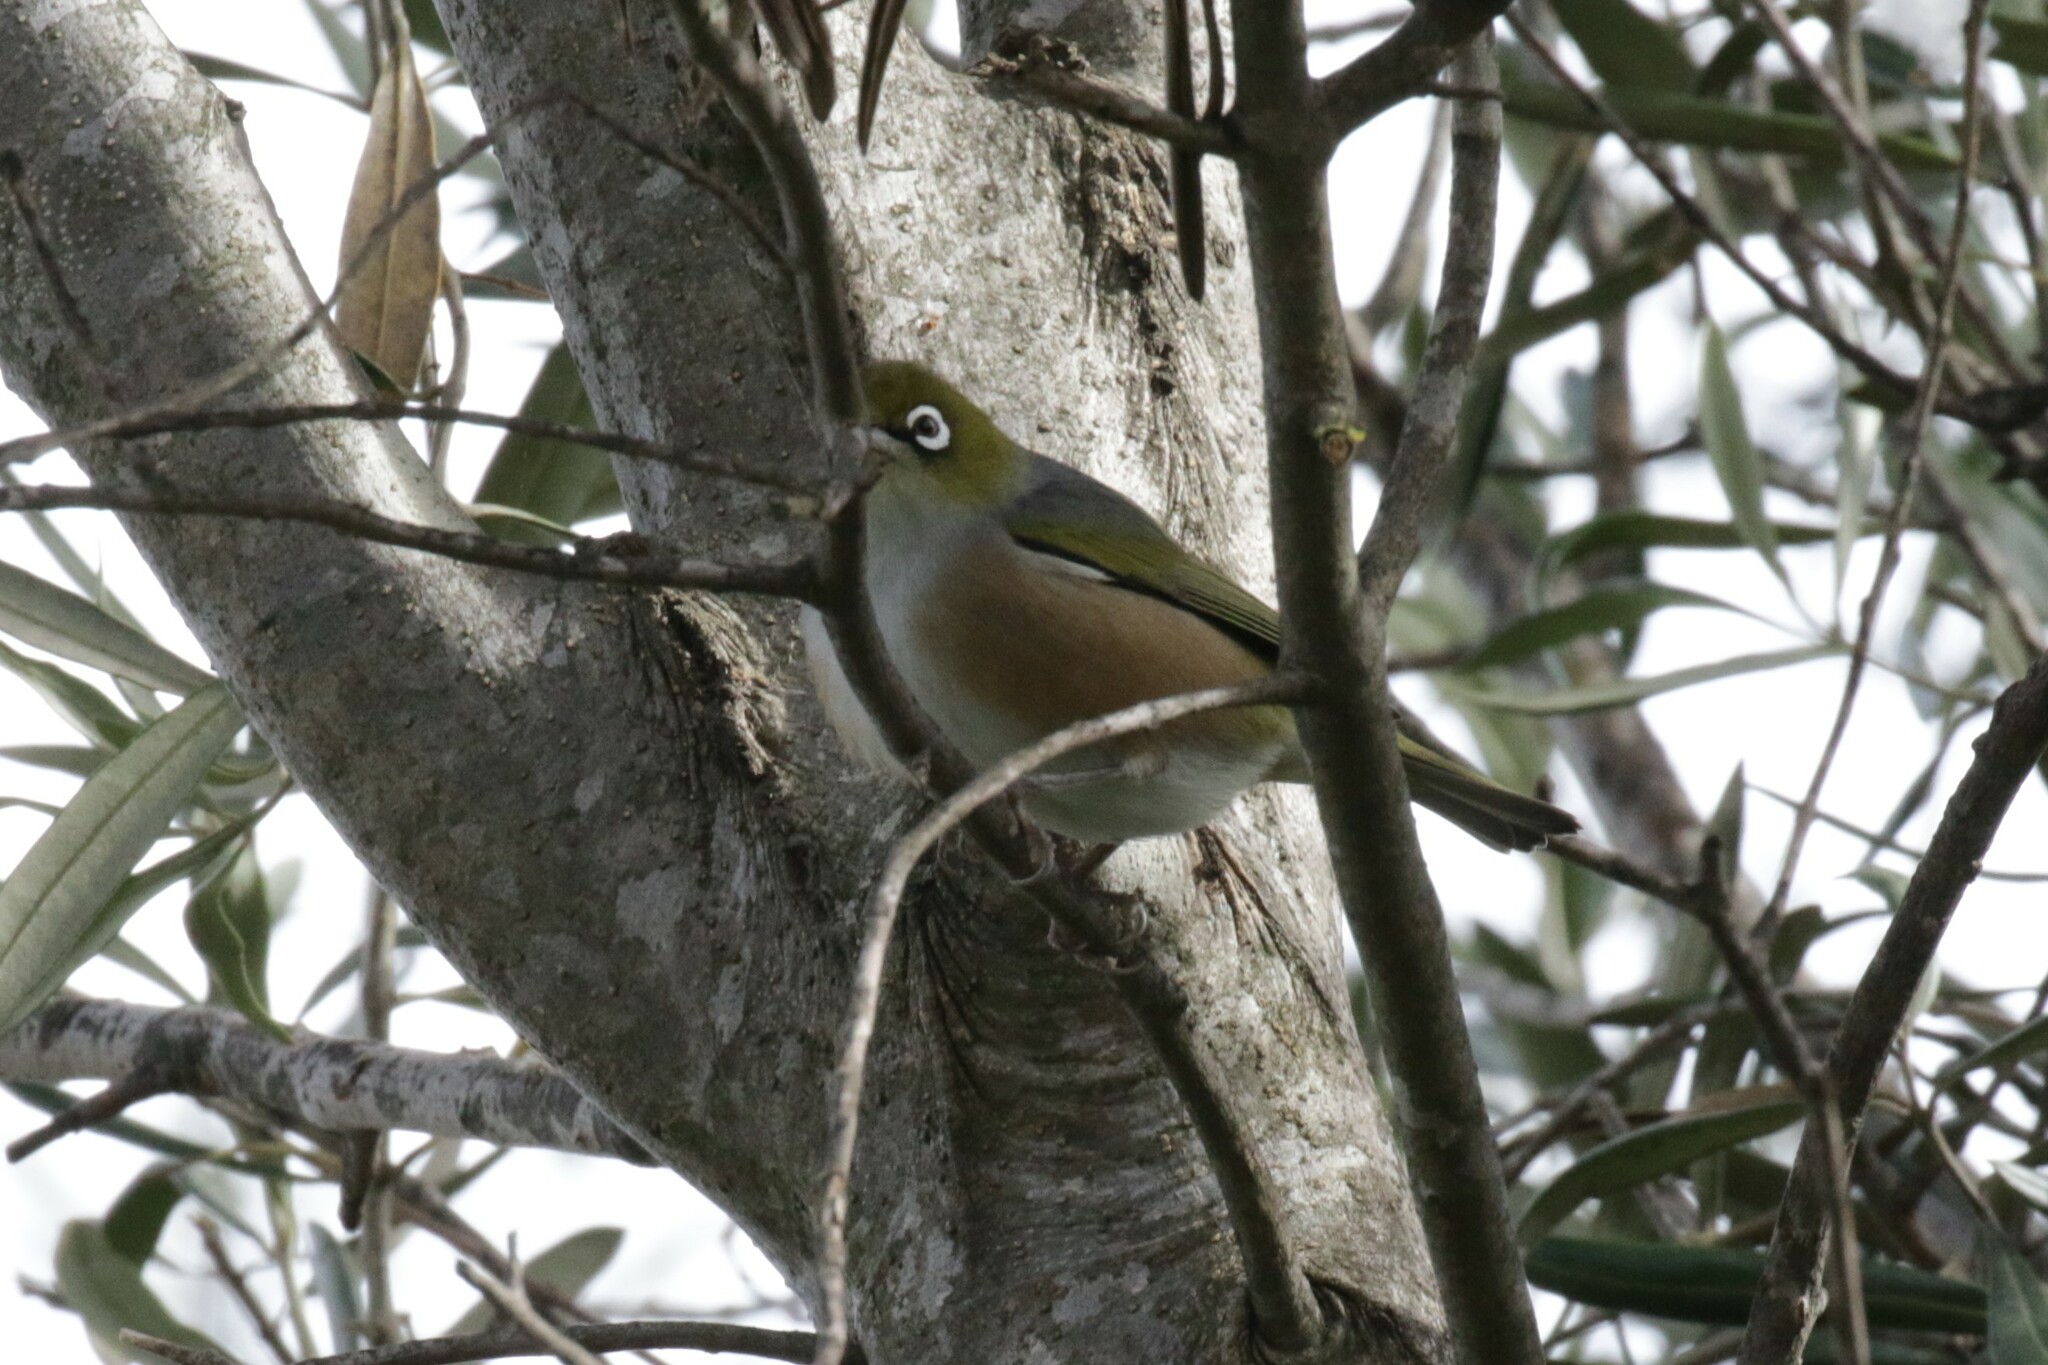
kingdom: Animalia
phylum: Chordata
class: Aves
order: Passeriformes
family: Zosteropidae
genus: Zosterops
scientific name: Zosterops lateralis
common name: Silvereye
